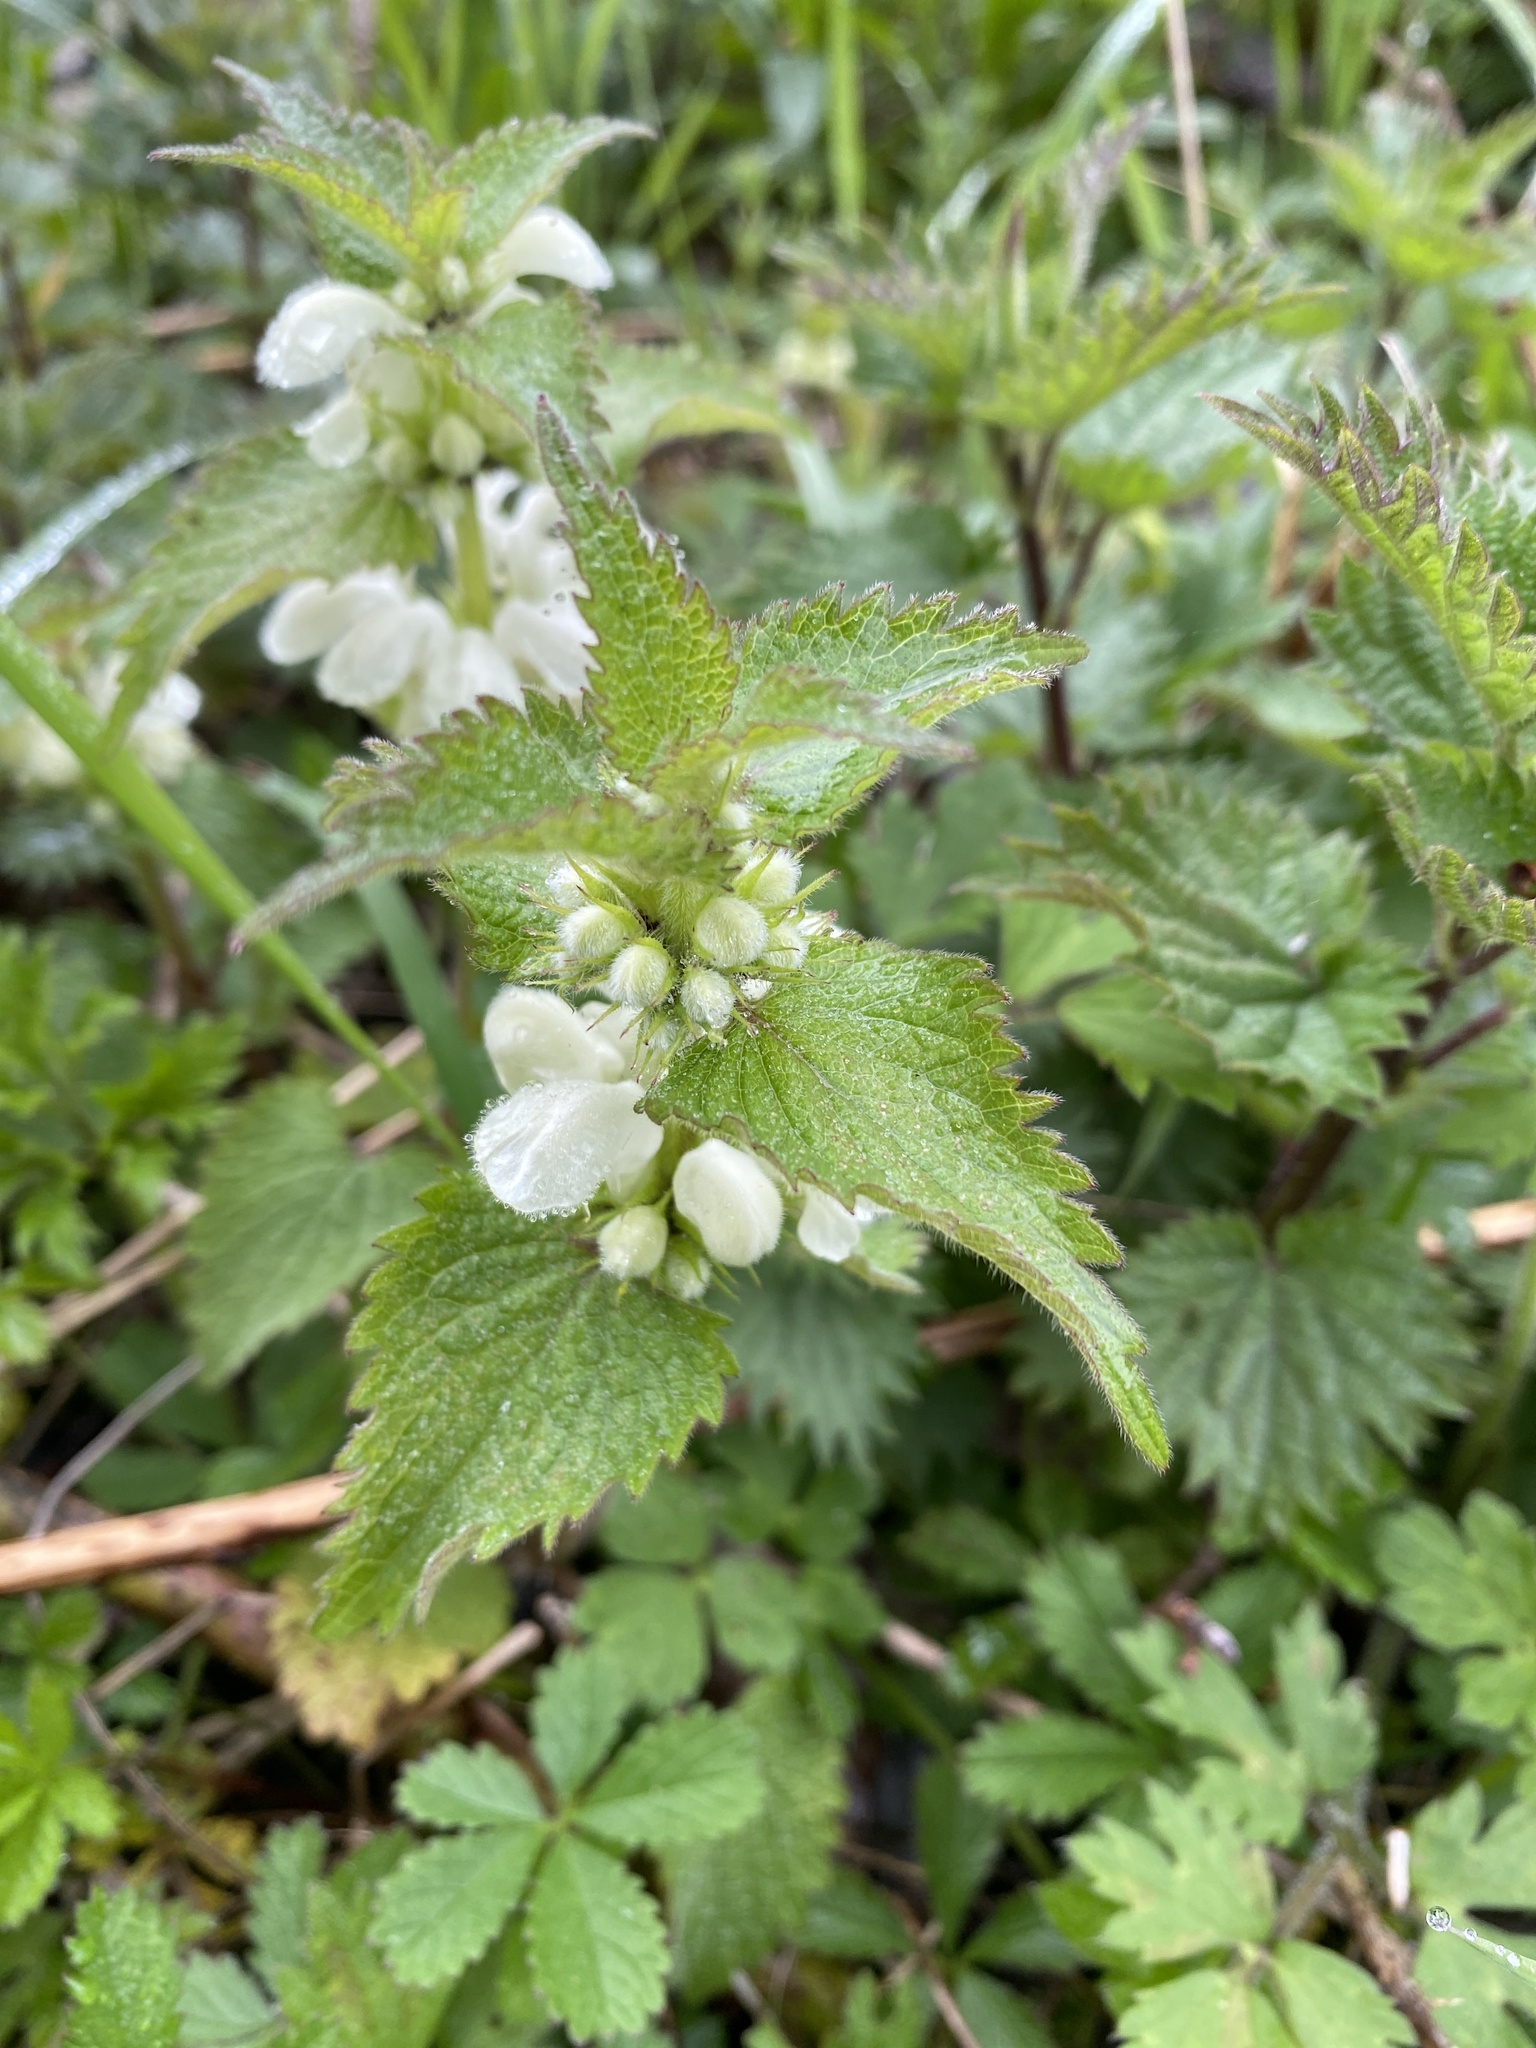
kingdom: Plantae
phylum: Tracheophyta
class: Magnoliopsida
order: Lamiales
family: Lamiaceae
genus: Lamium
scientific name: Lamium album
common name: White dead-nettle
